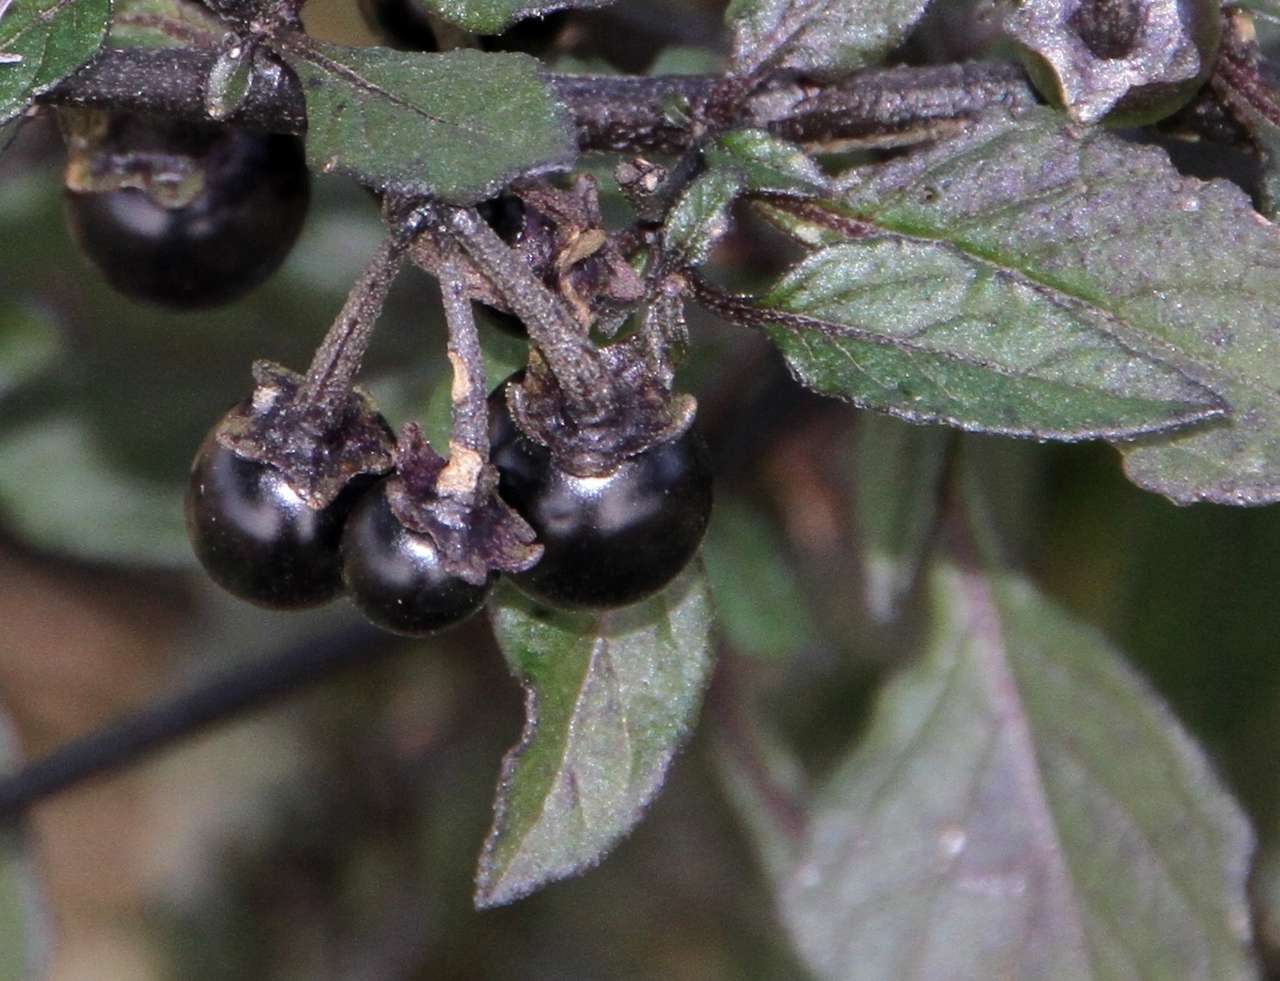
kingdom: Plantae
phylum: Tracheophyta
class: Magnoliopsida
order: Solanales
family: Solanaceae
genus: Solanum
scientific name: Solanum nigrum
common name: Black nightshade
